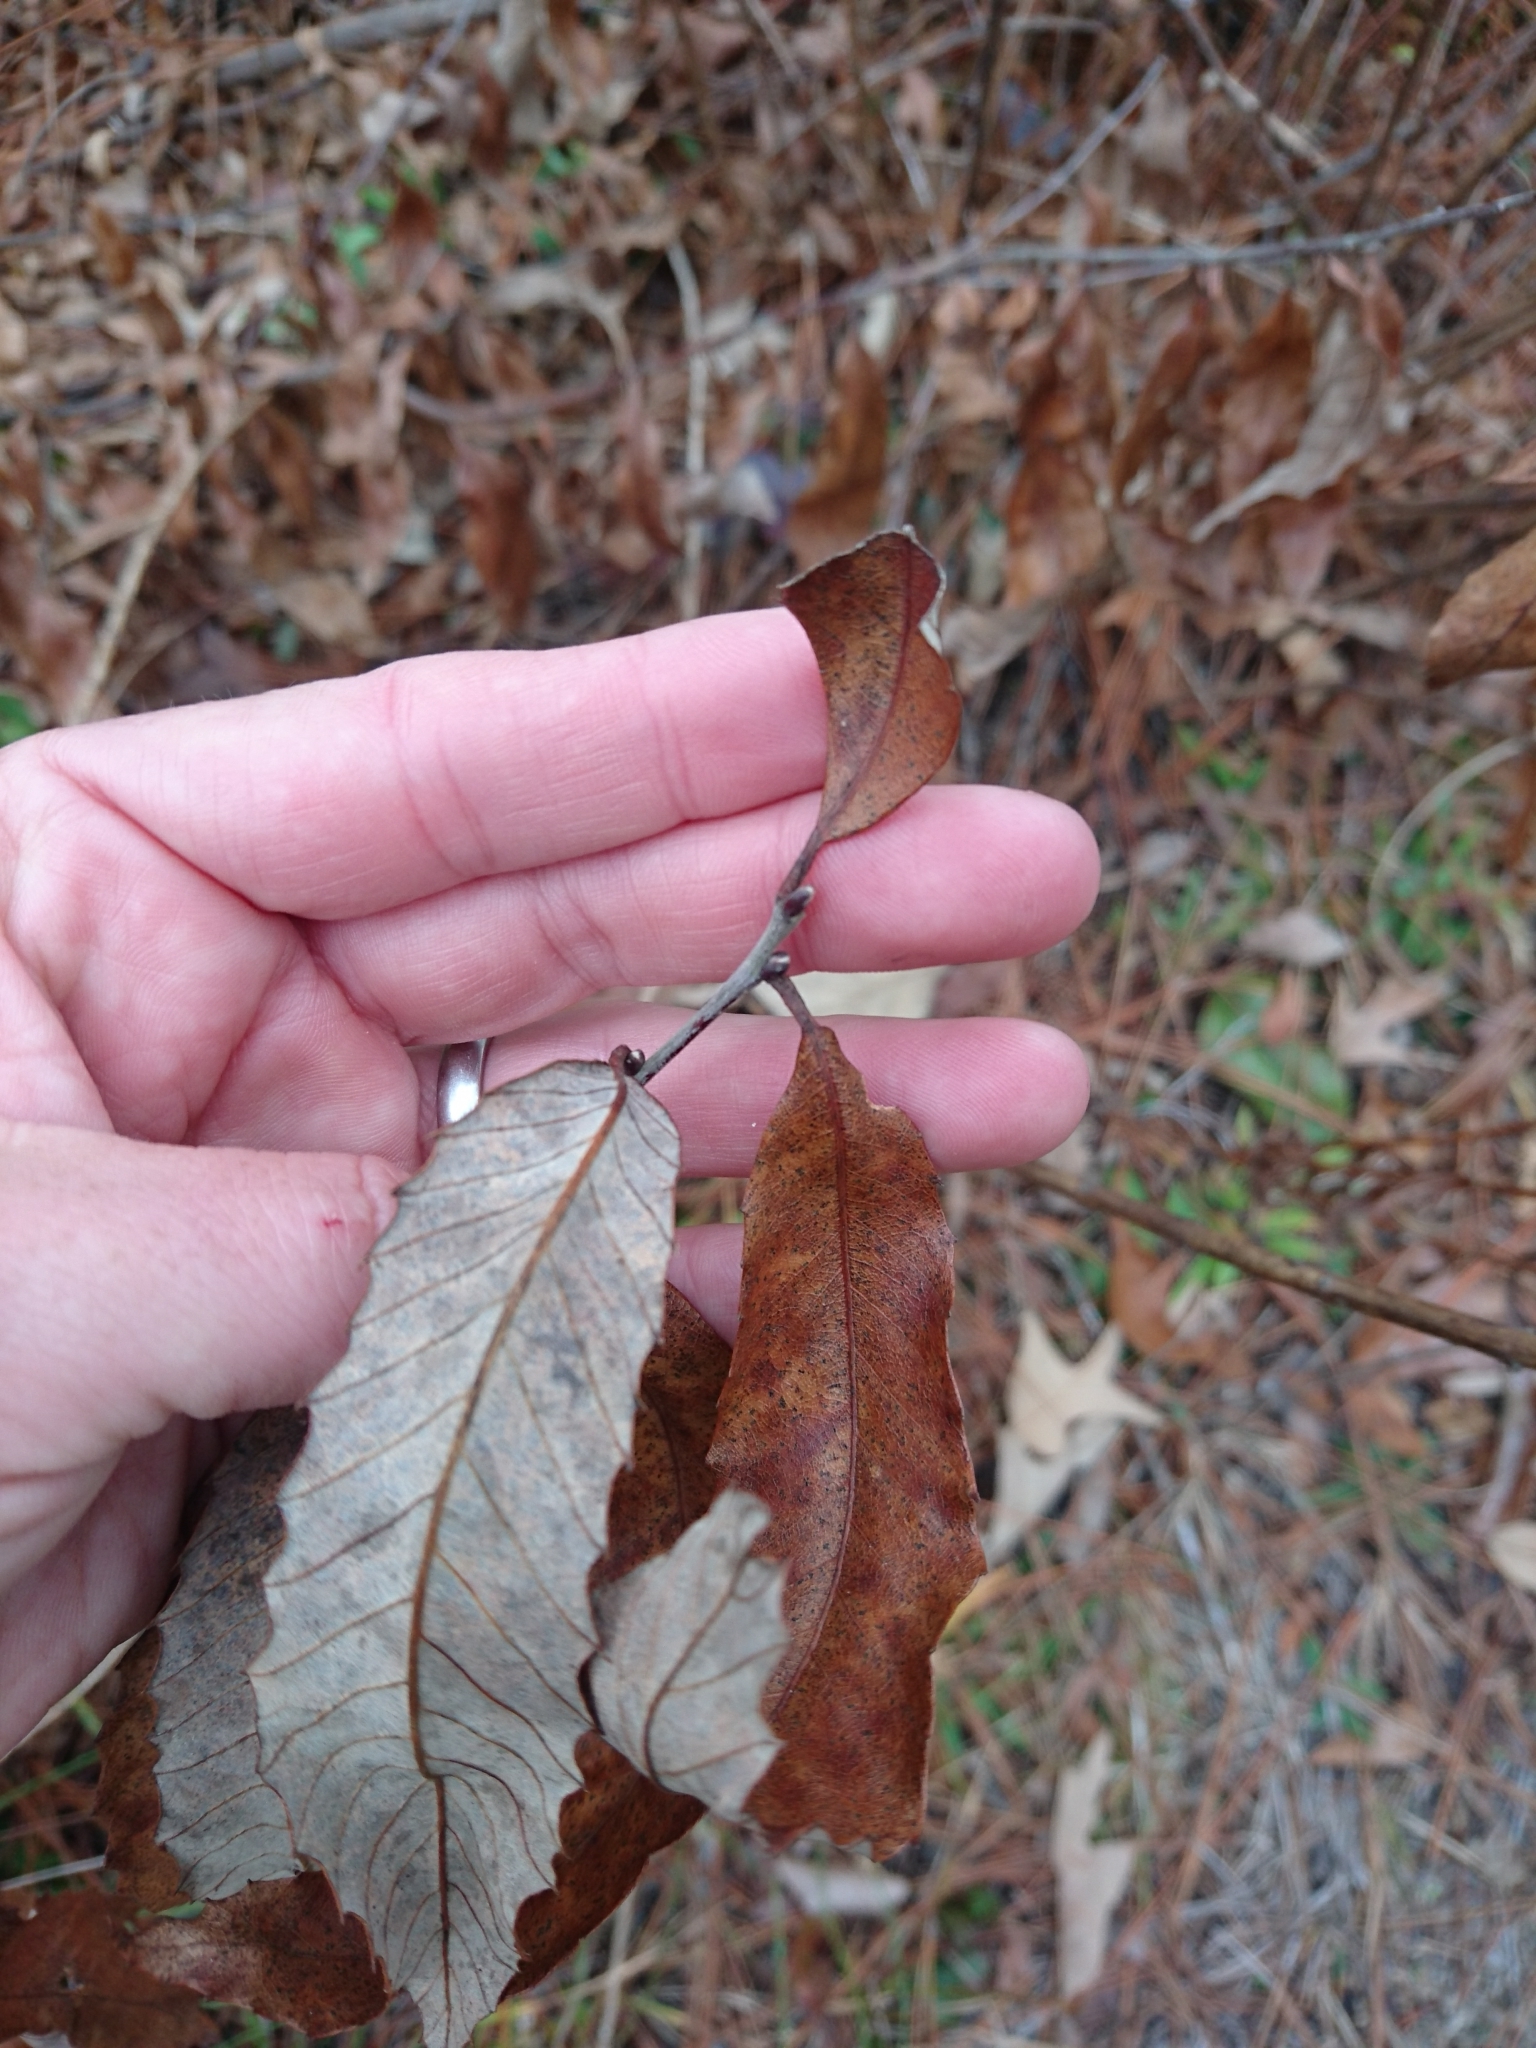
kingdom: Plantae
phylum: Tracheophyta
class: Magnoliopsida
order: Fagales
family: Fagaceae
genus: Castanea
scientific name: Castanea pumila
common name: Chinkapin
